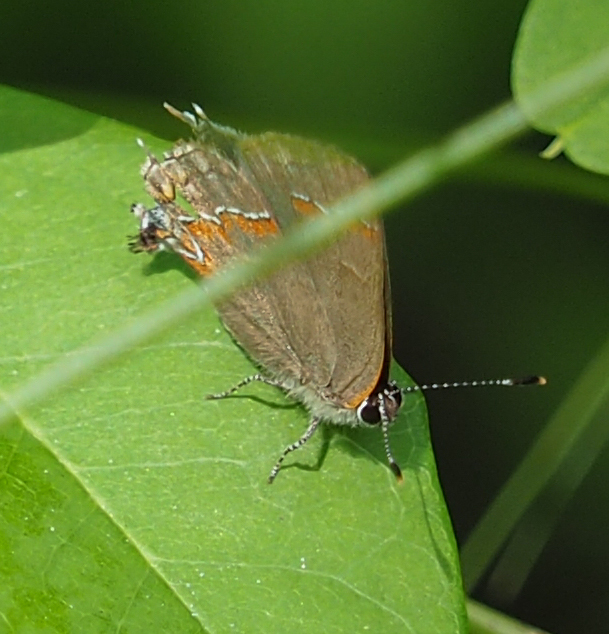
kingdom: Animalia
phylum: Arthropoda
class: Insecta
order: Lepidoptera
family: Lycaenidae
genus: Calycopis
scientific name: Calycopis cecrops
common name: Red-banded hairstreak
